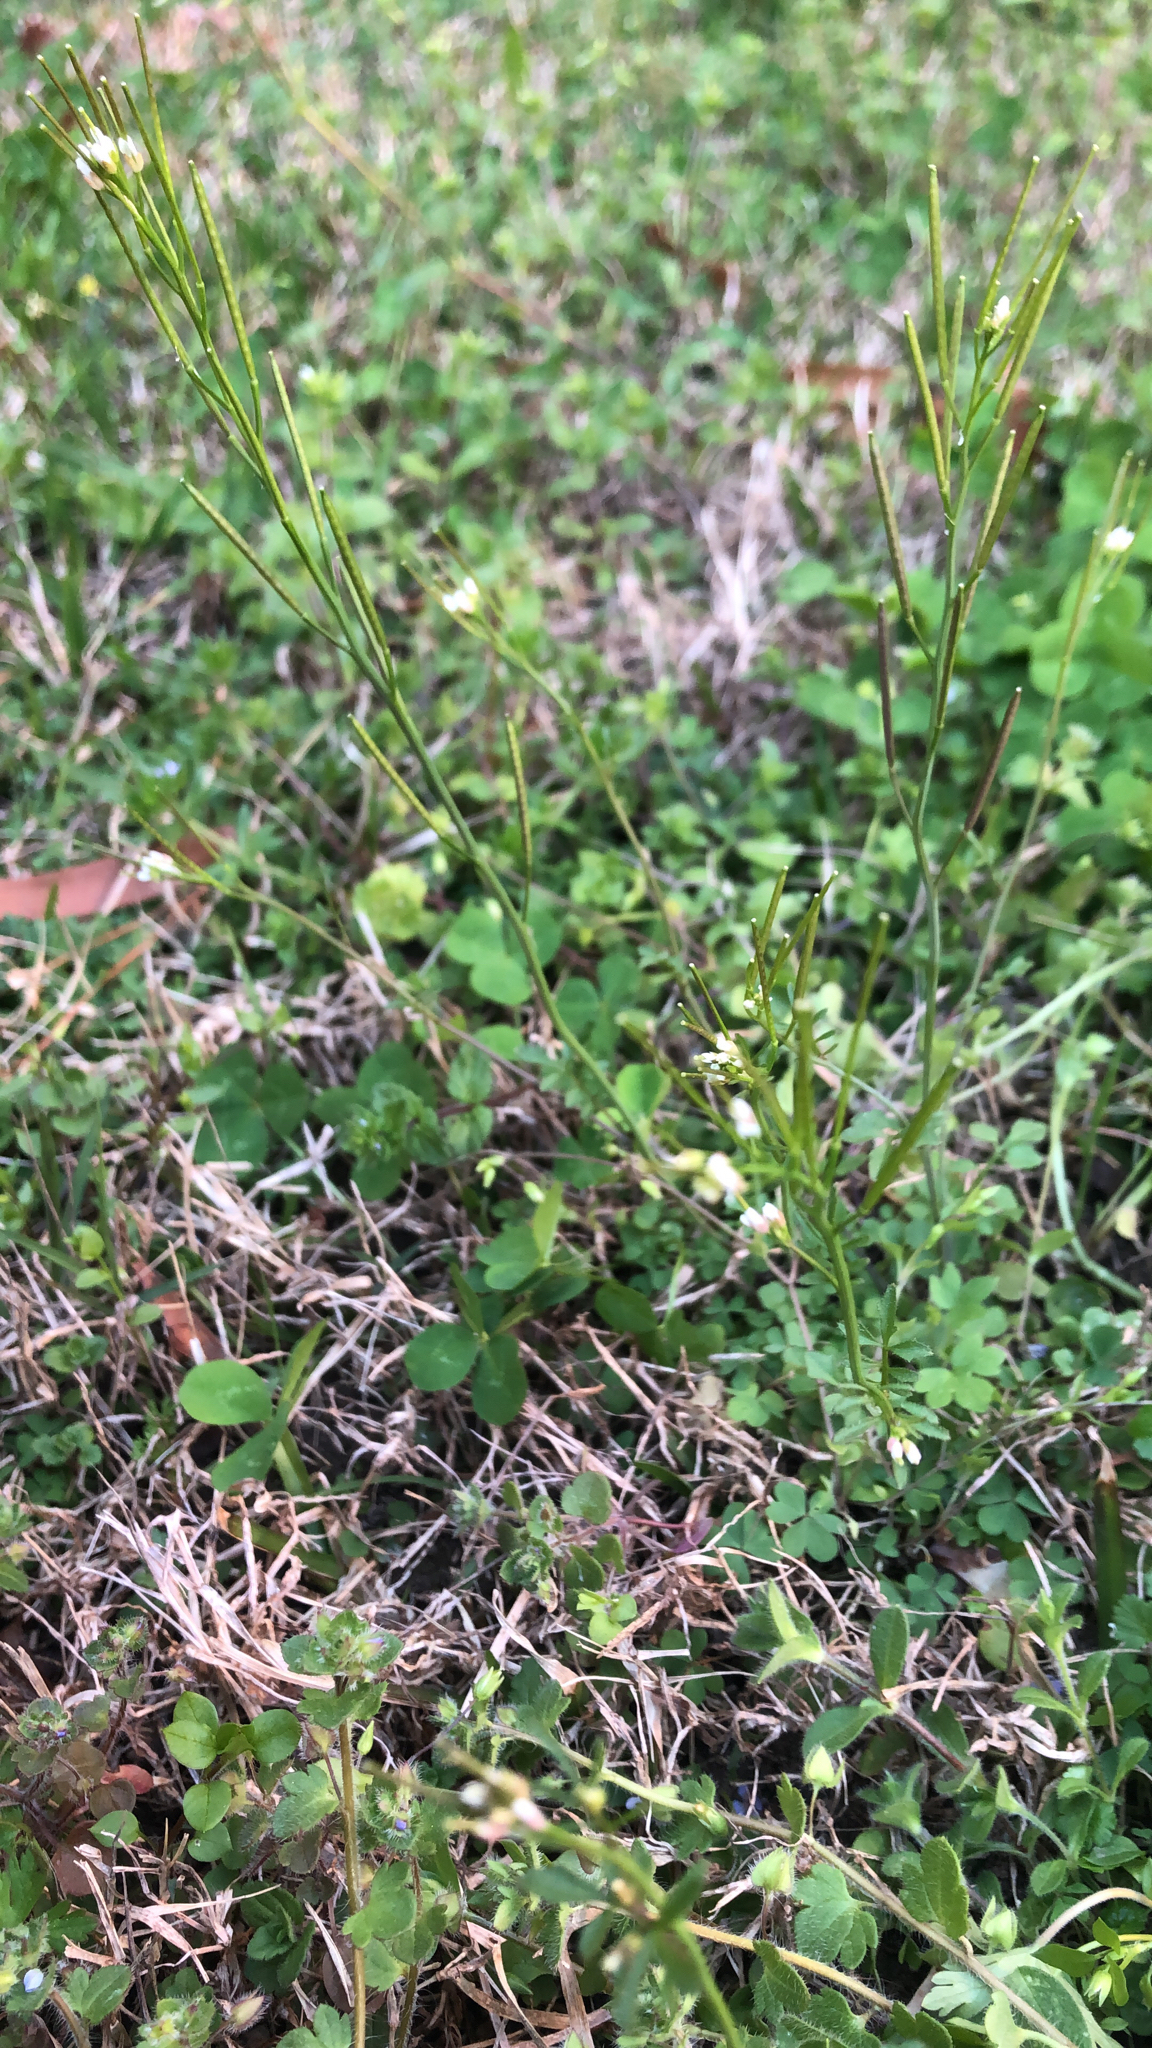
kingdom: Plantae
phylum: Tracheophyta
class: Magnoliopsida
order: Brassicales
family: Brassicaceae
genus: Cardamine
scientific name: Cardamine hirsuta
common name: Hairy bittercress
